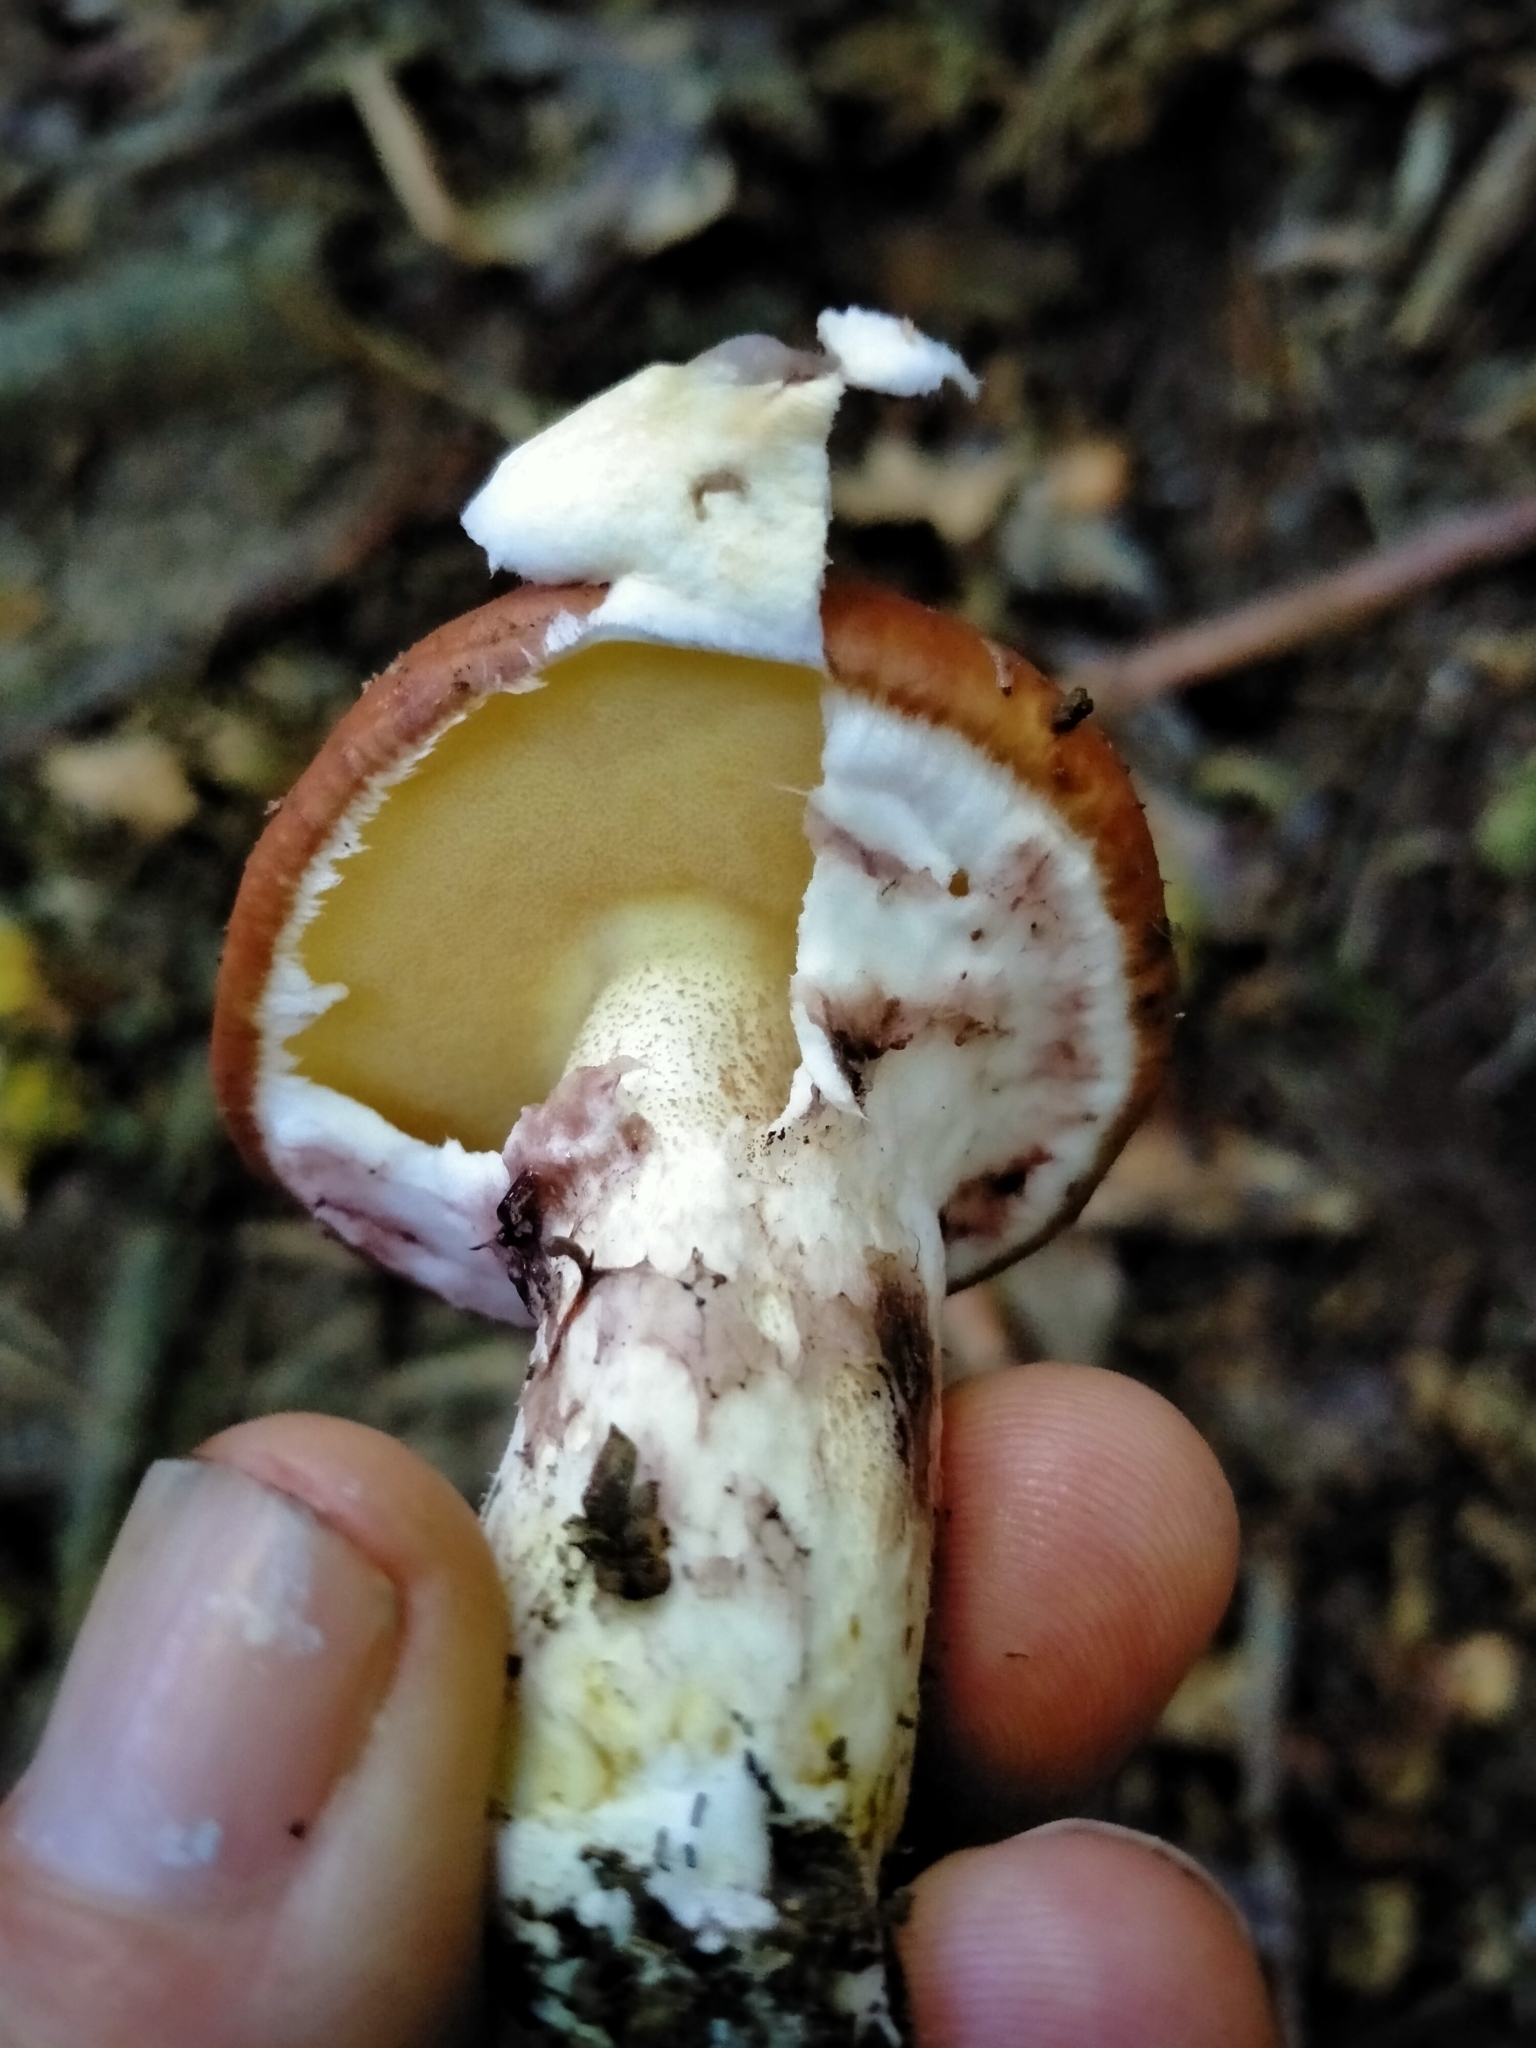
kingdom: Fungi
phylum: Basidiomycota
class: Agaricomycetes
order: Boletales
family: Suillaceae
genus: Suillus
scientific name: Suillus luteus
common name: Slippery jack
